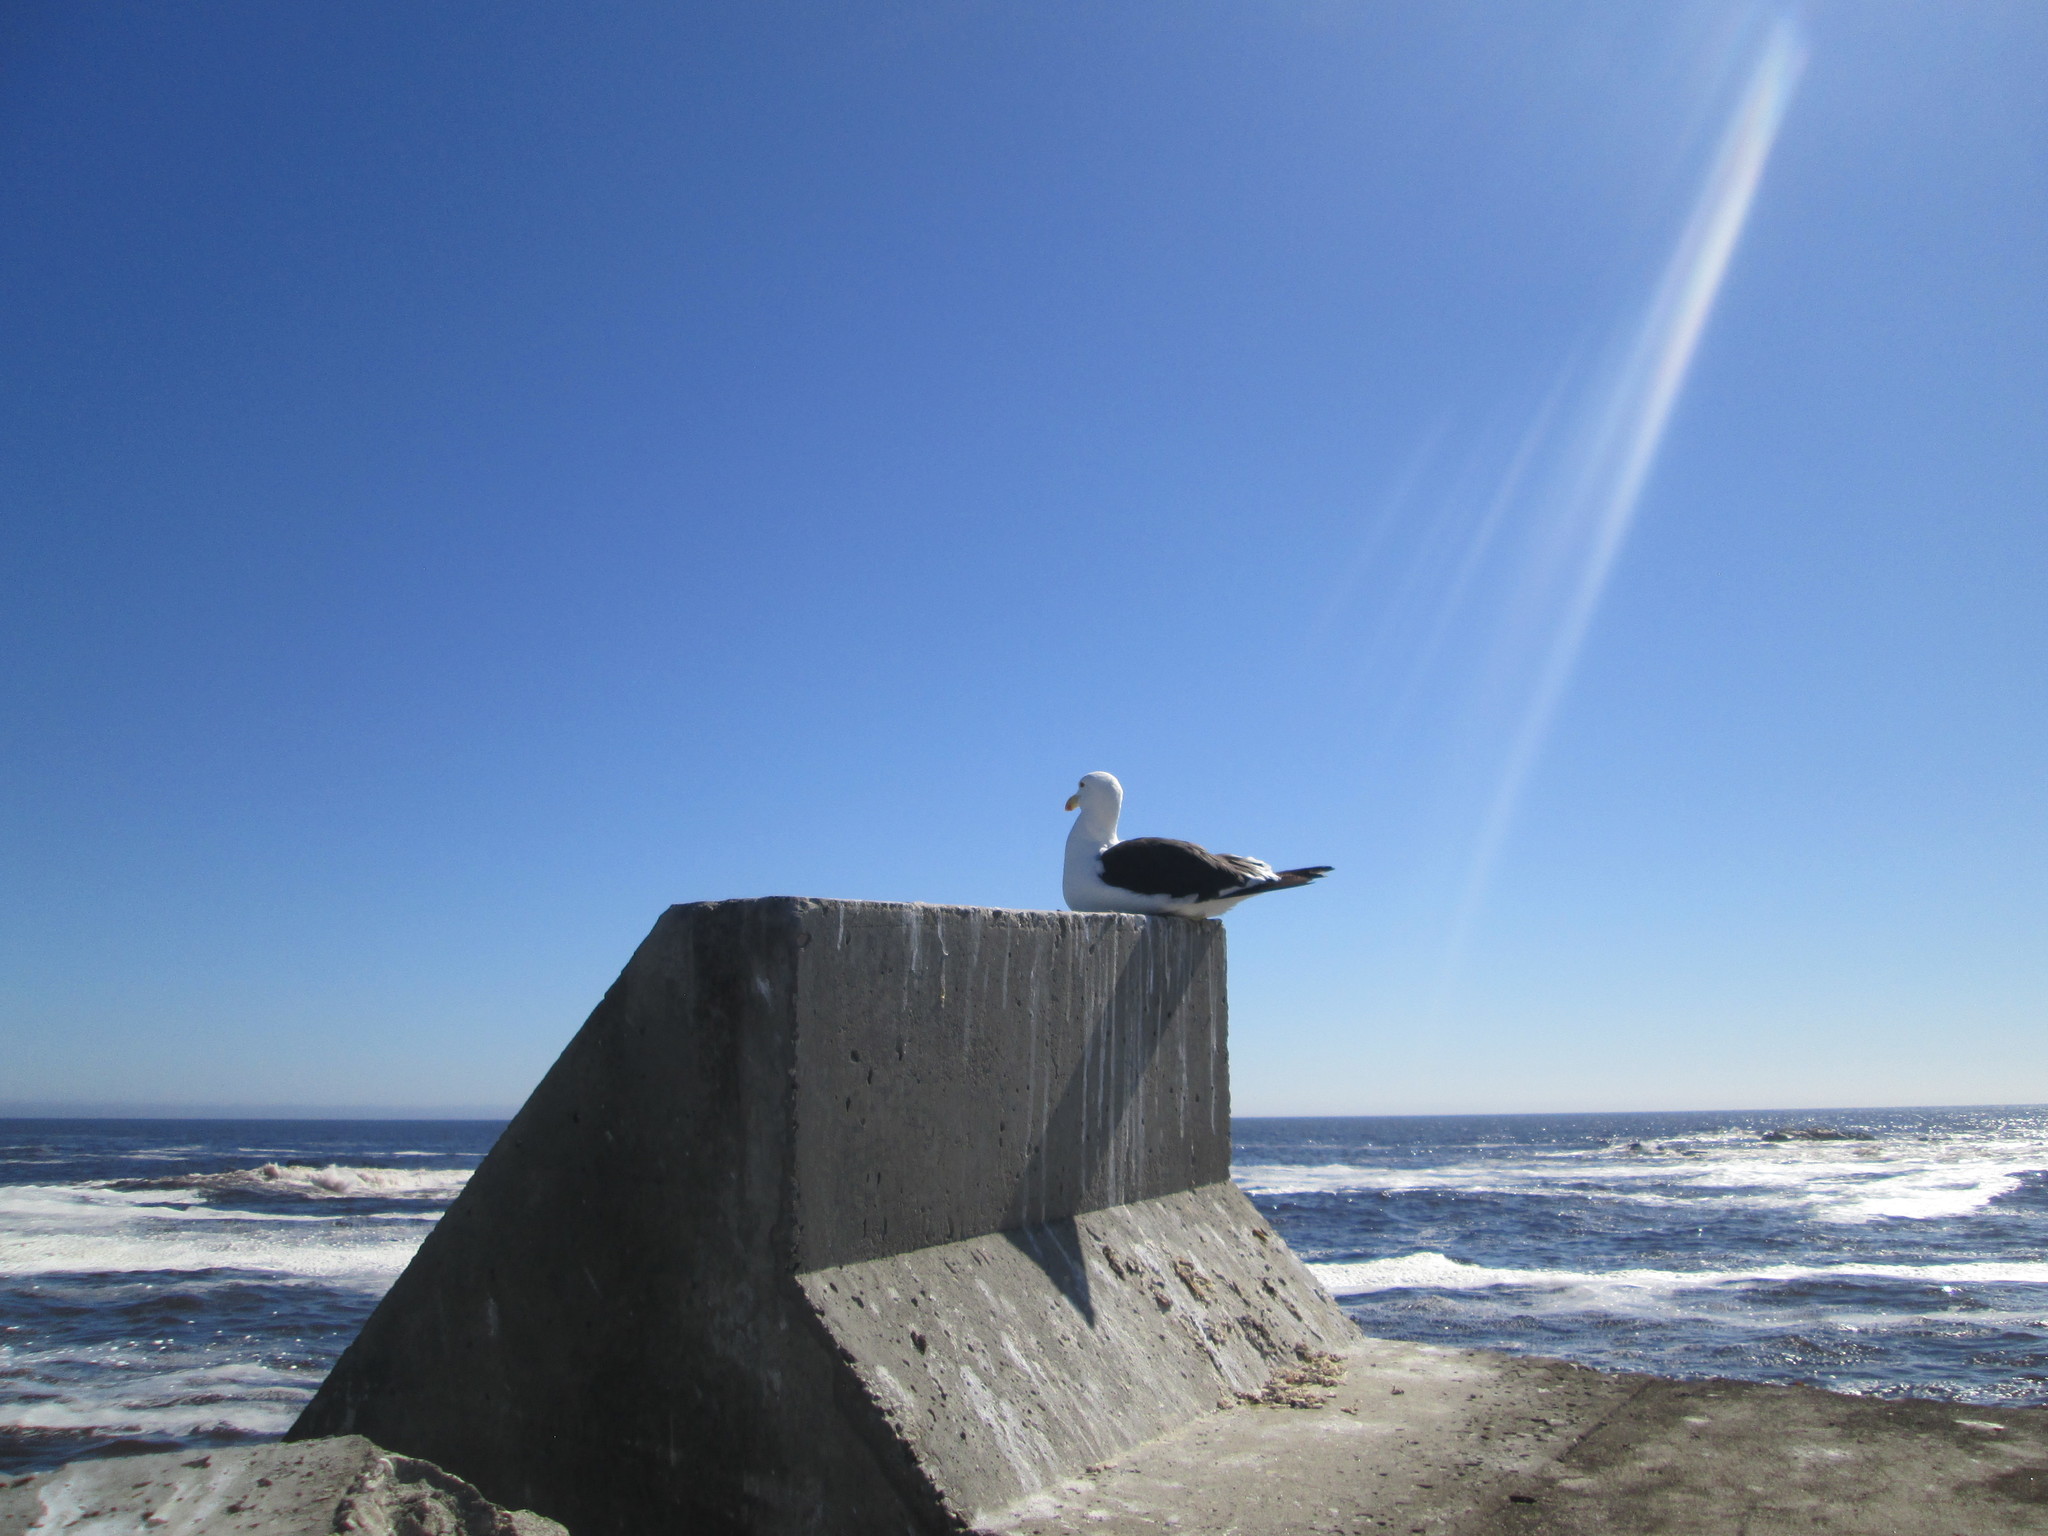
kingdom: Animalia
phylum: Chordata
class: Aves
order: Charadriiformes
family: Laridae
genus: Larus
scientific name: Larus dominicanus
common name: Kelp gull
